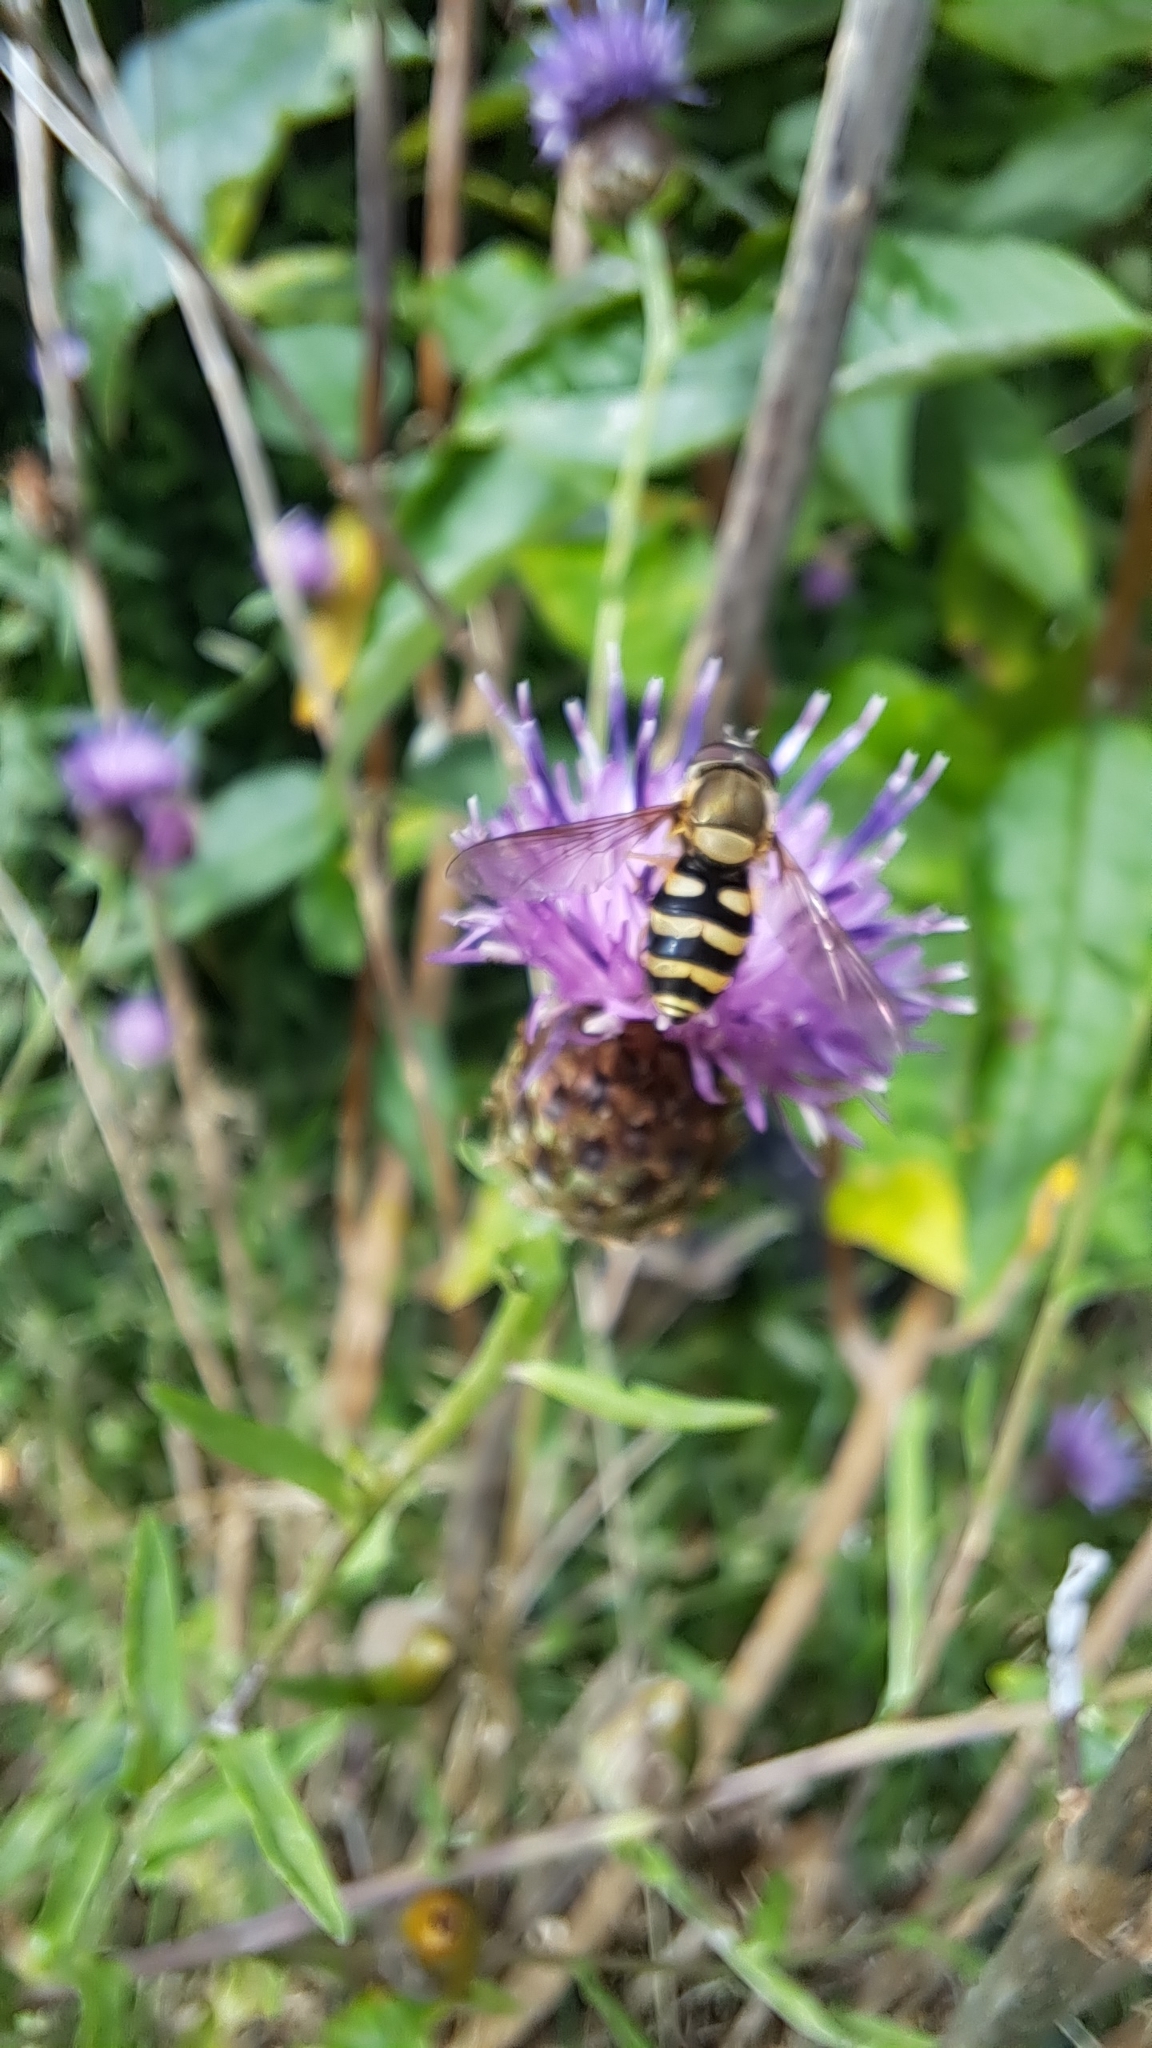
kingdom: Animalia
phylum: Arthropoda
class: Insecta
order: Diptera
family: Syrphidae
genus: Syrphus
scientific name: Syrphus
